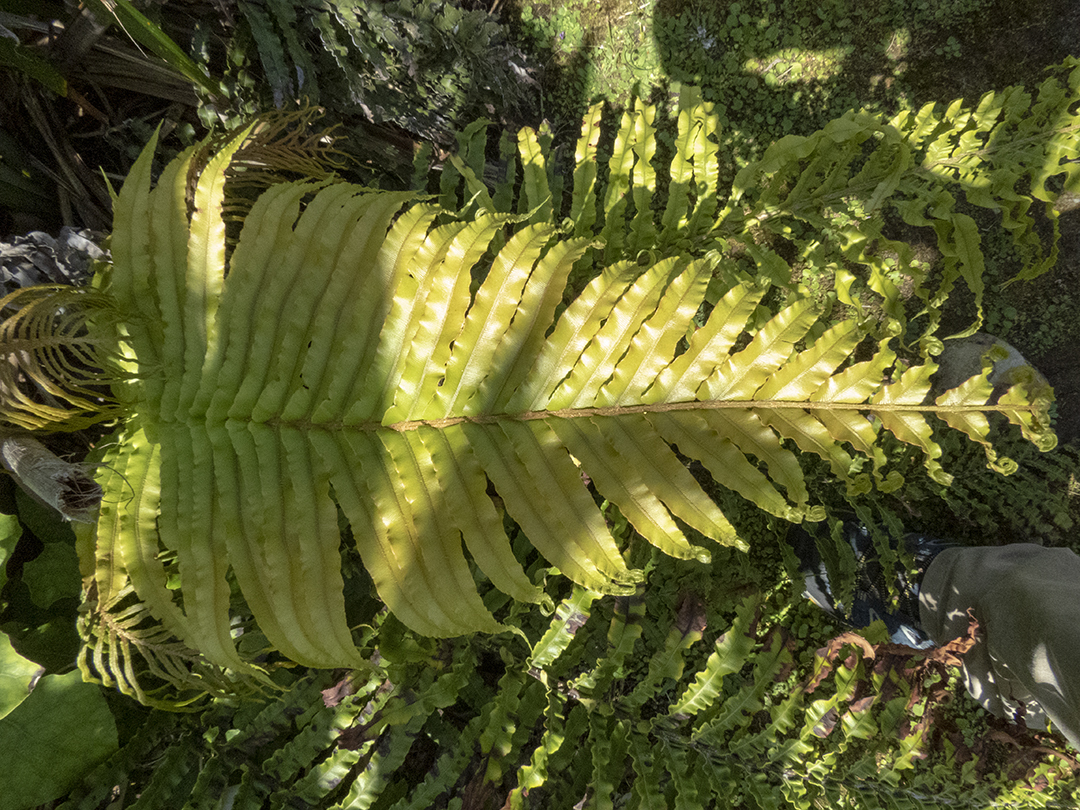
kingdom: Plantae
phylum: Tracheophyta
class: Polypodiopsida
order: Polypodiales
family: Blechnaceae
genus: Parablechnum
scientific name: Parablechnum novae-zelandiae
